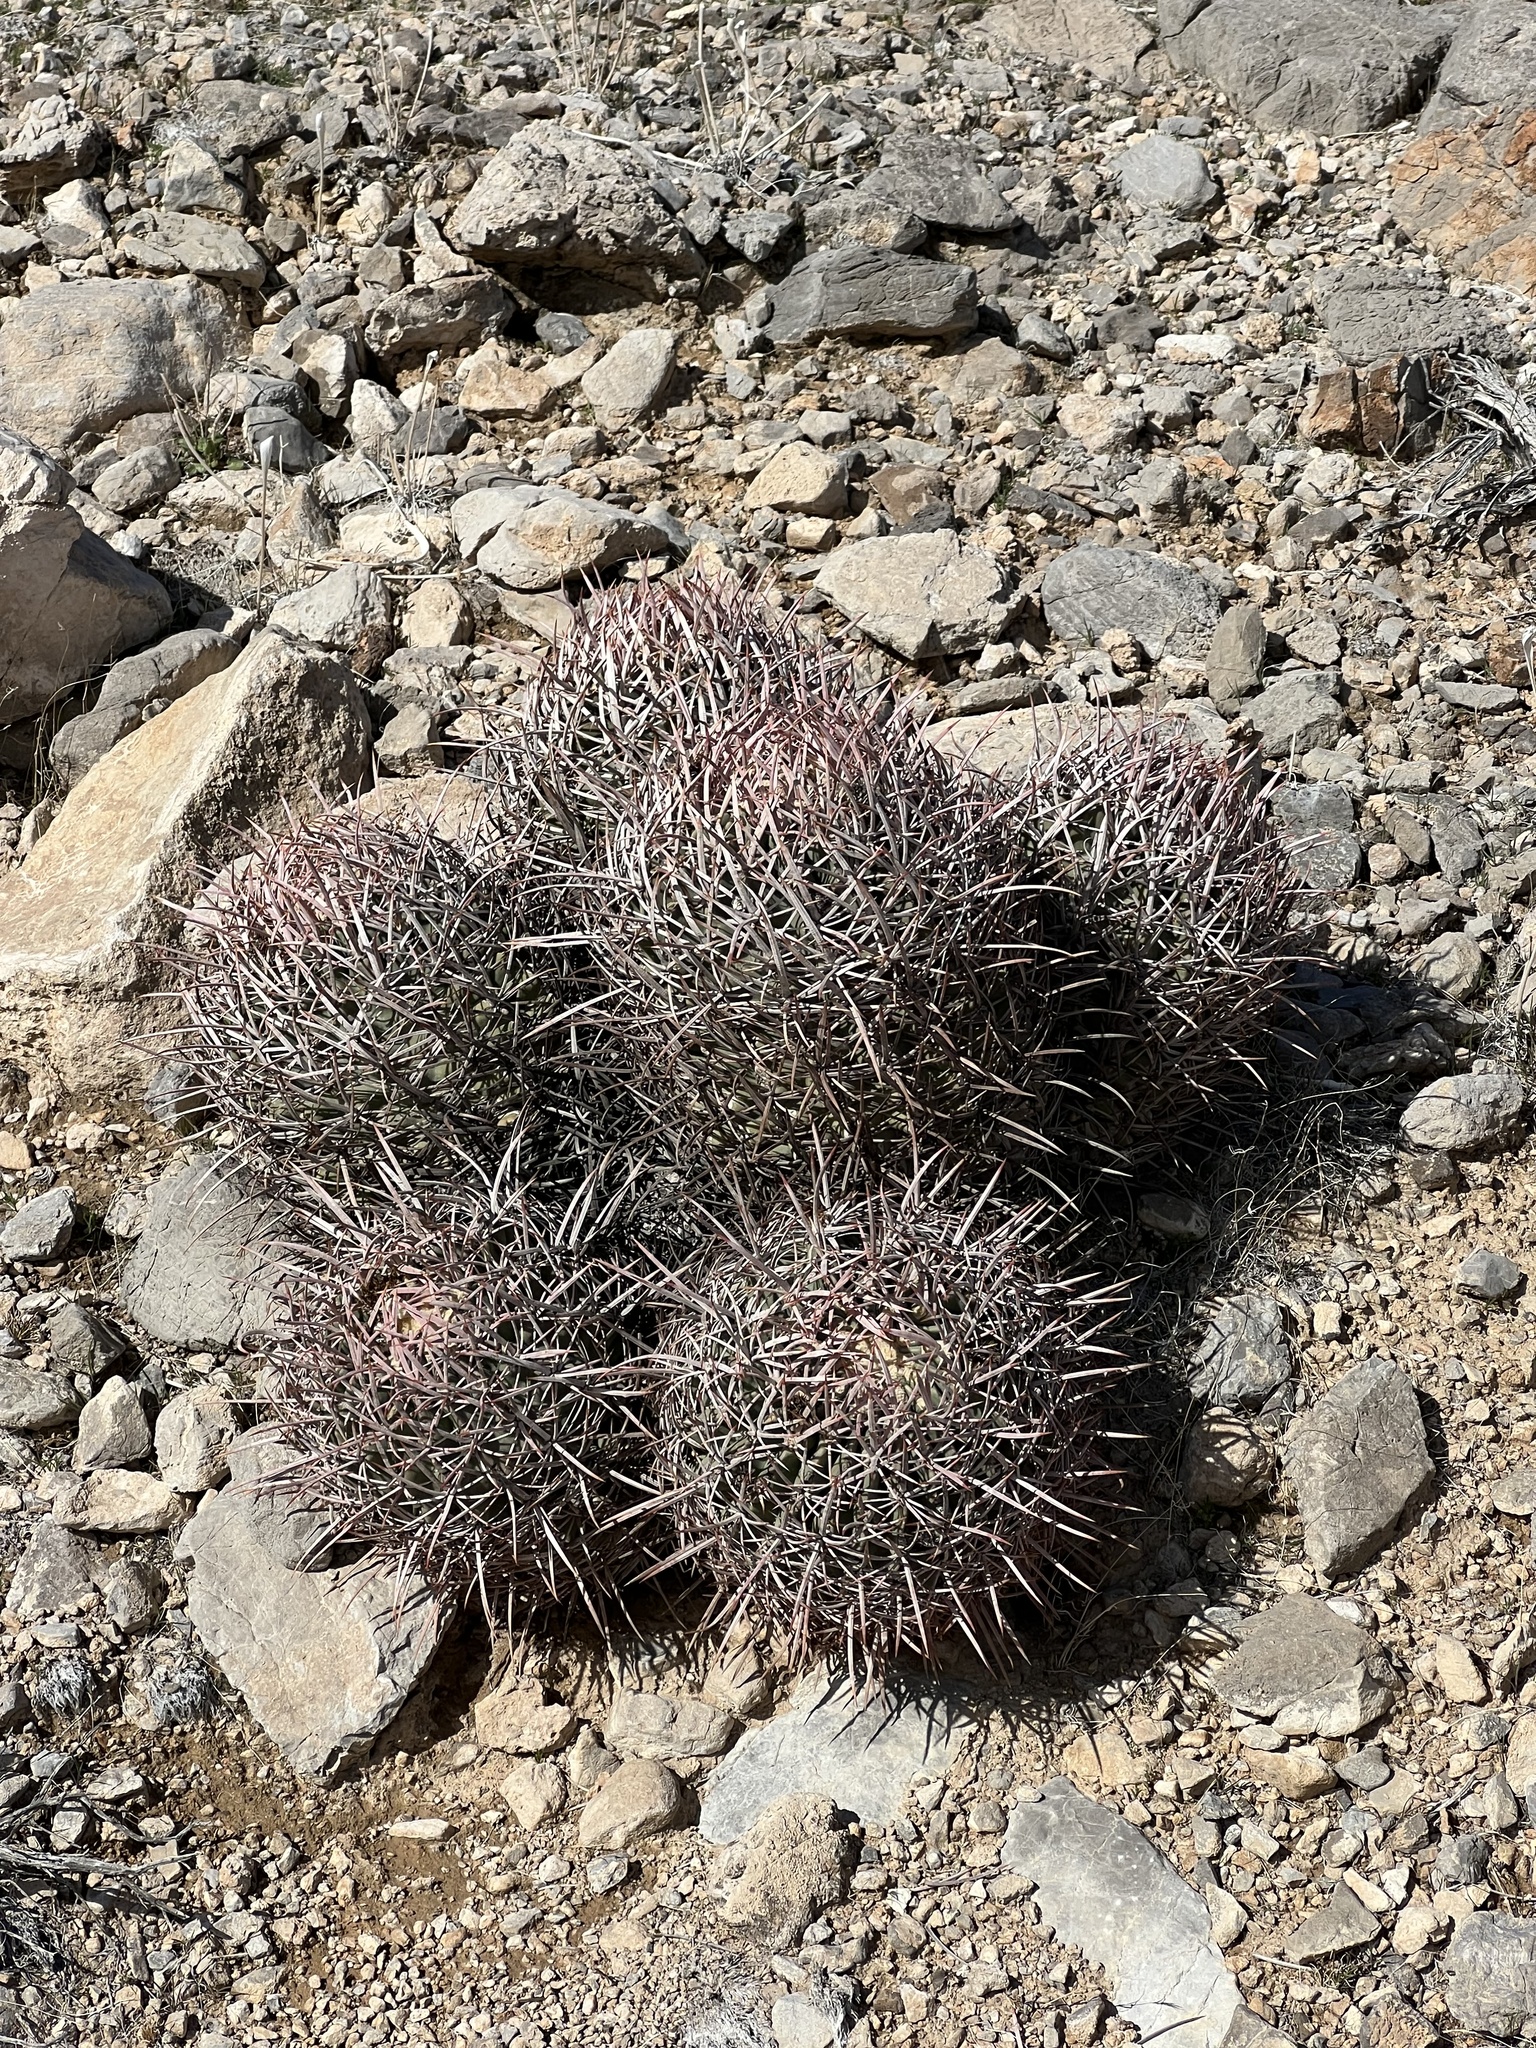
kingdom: Plantae
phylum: Tracheophyta
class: Magnoliopsida
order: Caryophyllales
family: Cactaceae
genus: Echinocactus
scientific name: Echinocactus polycephalus
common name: Cottontop cactus
